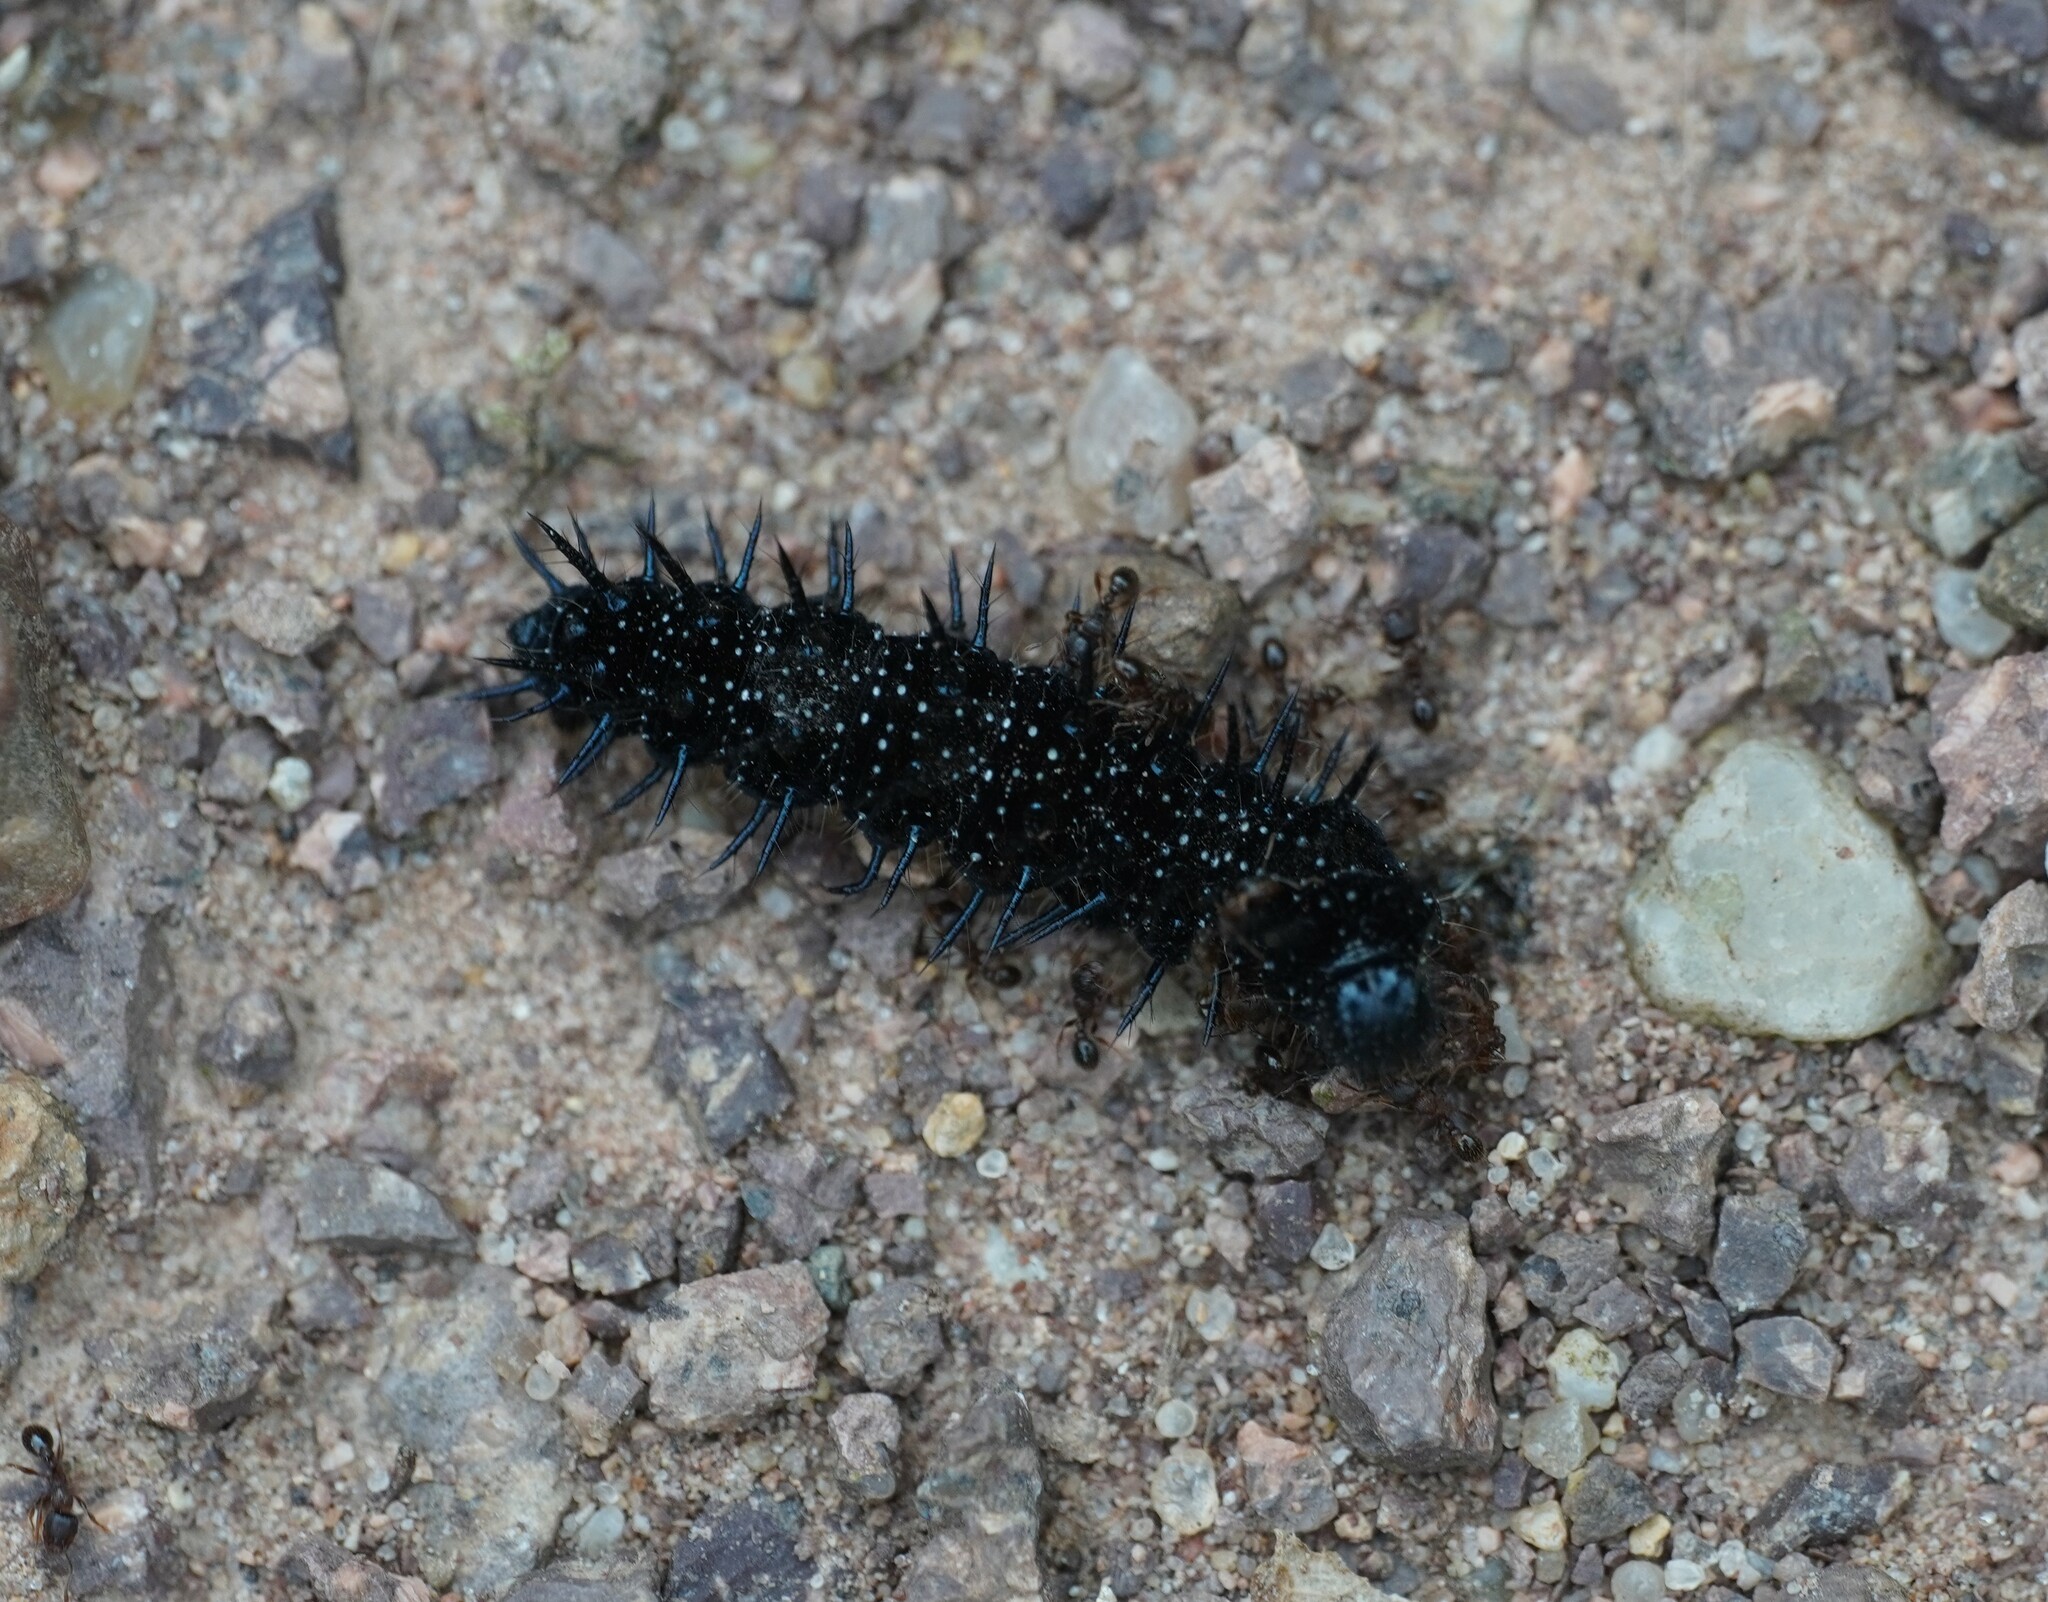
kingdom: Animalia
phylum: Arthropoda
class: Insecta
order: Lepidoptera
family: Nymphalidae
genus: Aglais
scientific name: Aglais io
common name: Peacock
